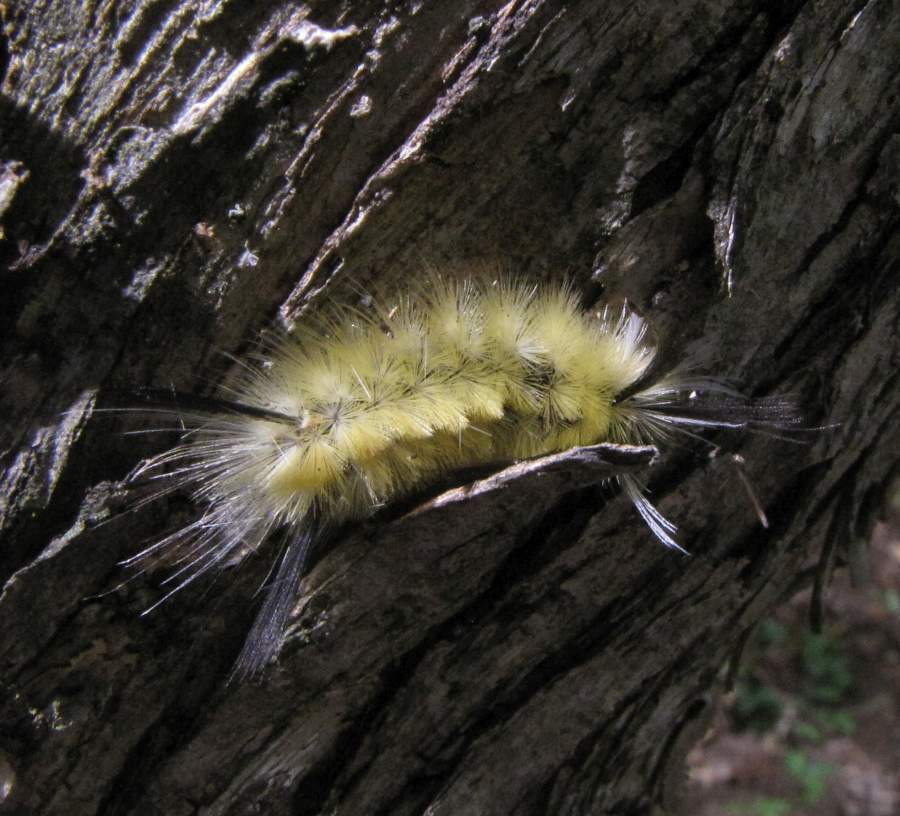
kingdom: Animalia
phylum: Arthropoda
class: Insecta
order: Lepidoptera
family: Erebidae
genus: Halysidota
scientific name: Halysidota tessellaris
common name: Banded tussock moth
